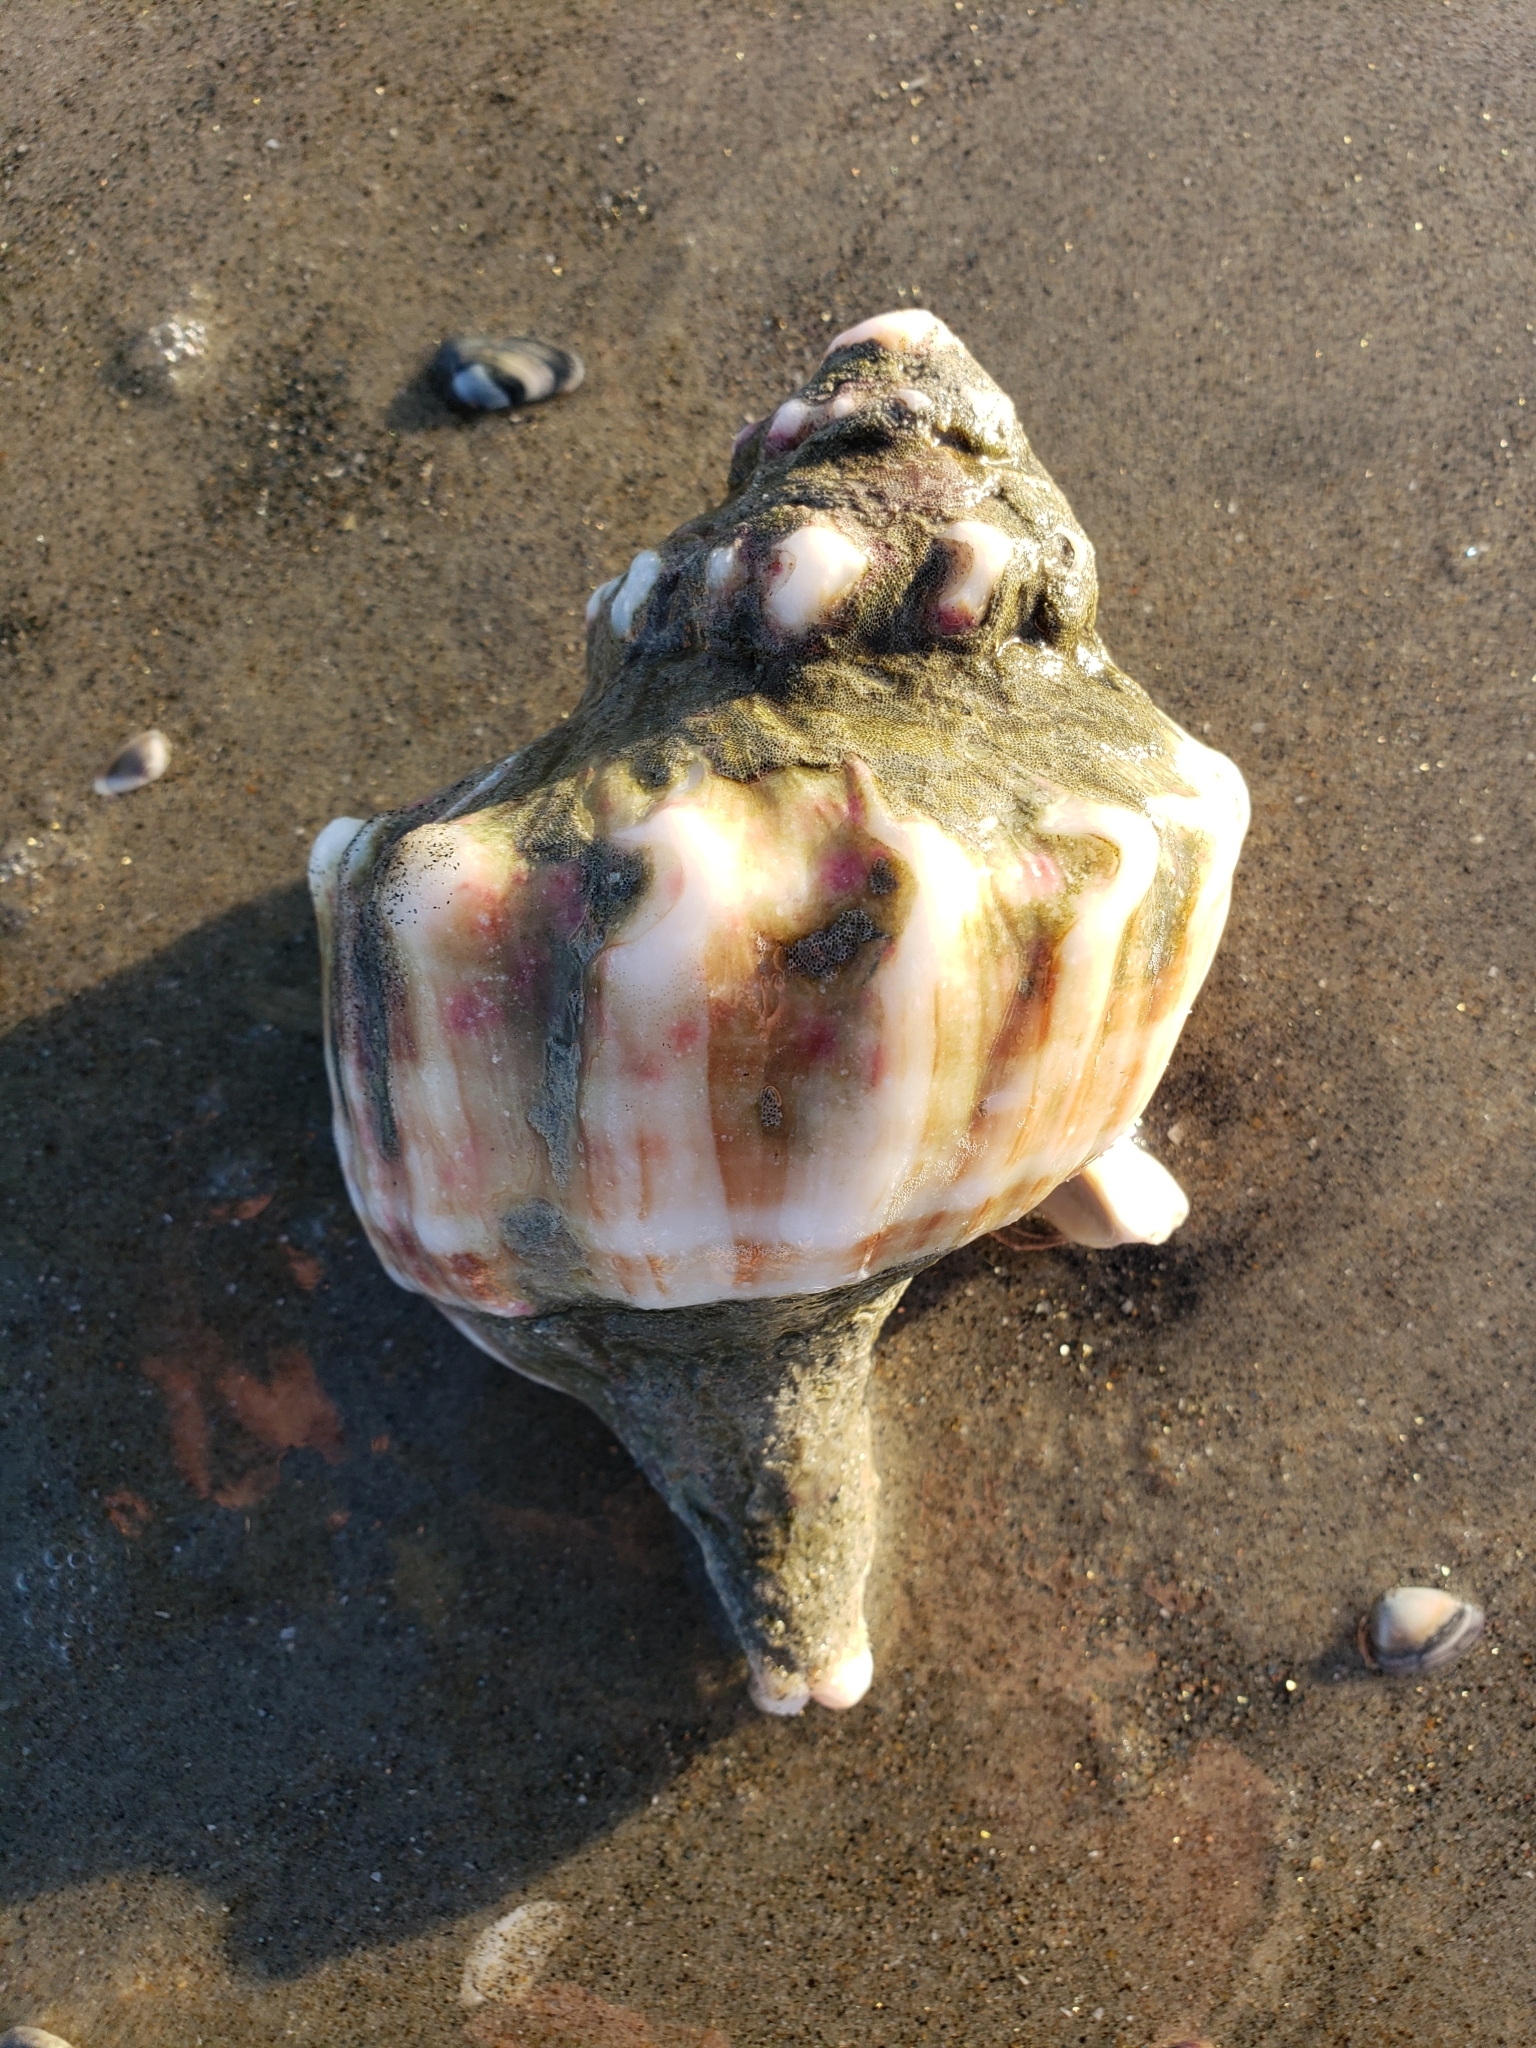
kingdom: Animalia
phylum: Mollusca
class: Gastropoda
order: Neogastropoda
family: Muricidae
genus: Forreria
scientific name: Forreria belcheri
